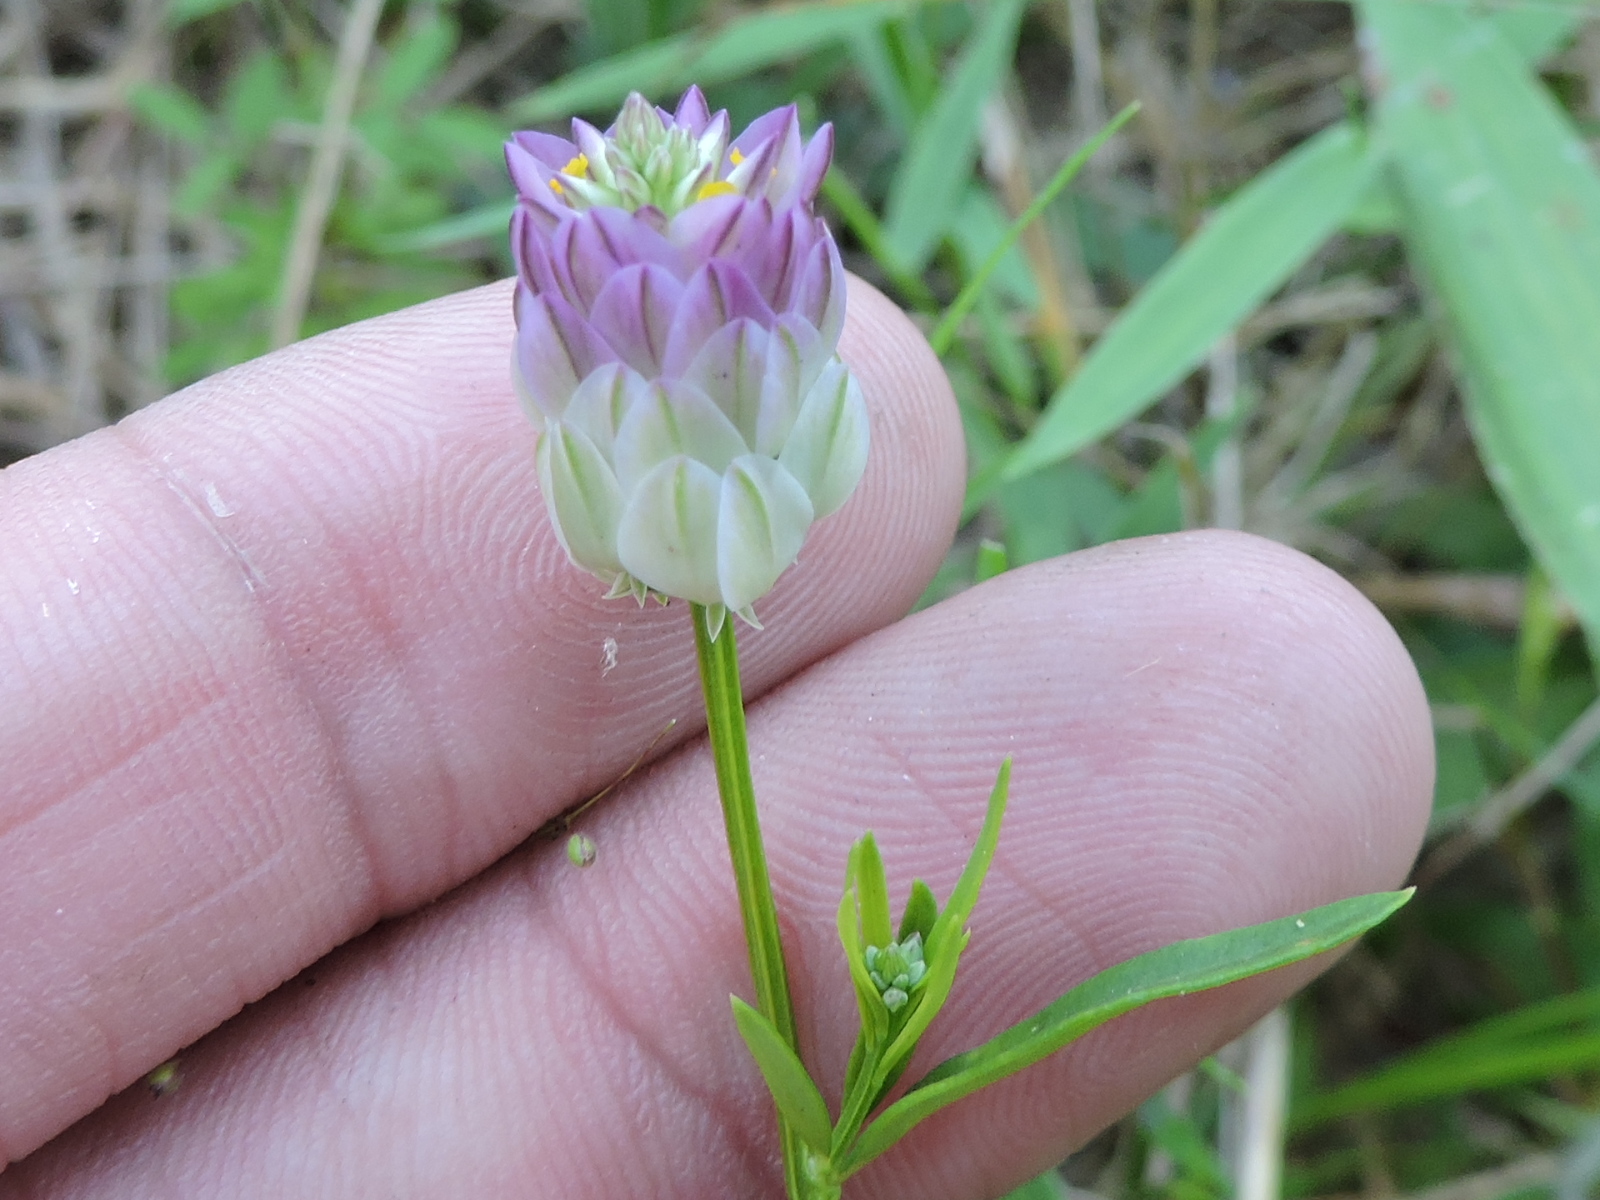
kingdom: Plantae
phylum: Tracheophyta
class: Magnoliopsida
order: Fabales
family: Polygalaceae
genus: Polygala
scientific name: Polygala sanguinea
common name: Blood milkwort
